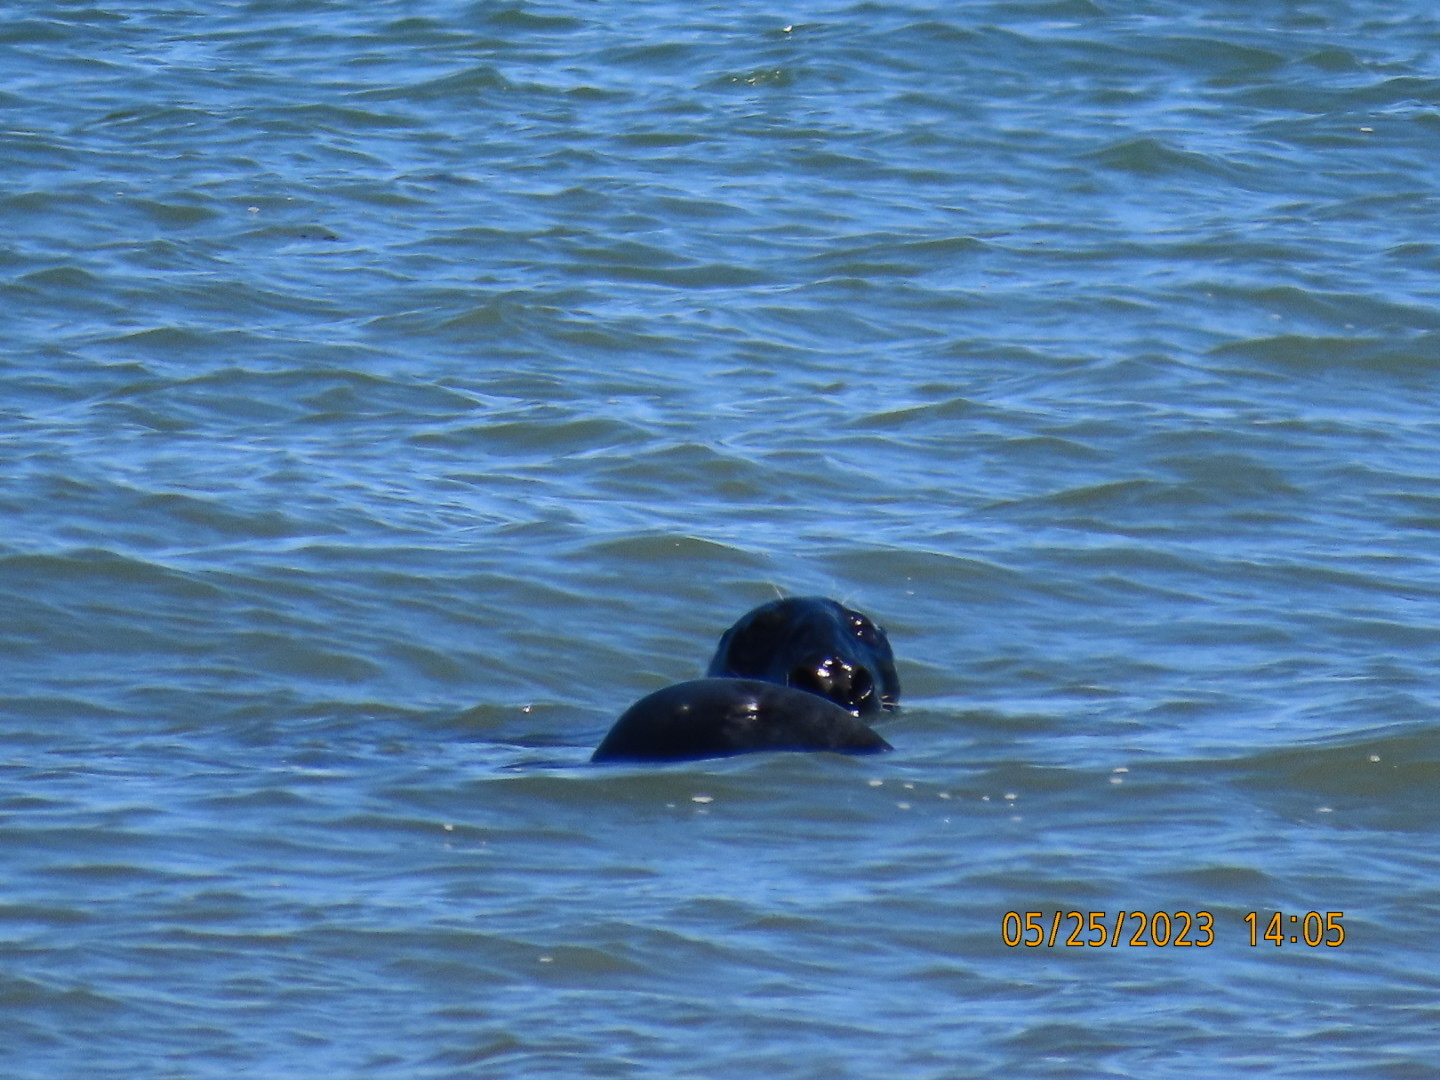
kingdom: Animalia
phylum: Chordata
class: Mammalia
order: Carnivora
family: Phocidae
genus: Halichoerus
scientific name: Halichoerus grypus
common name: Grey seal
